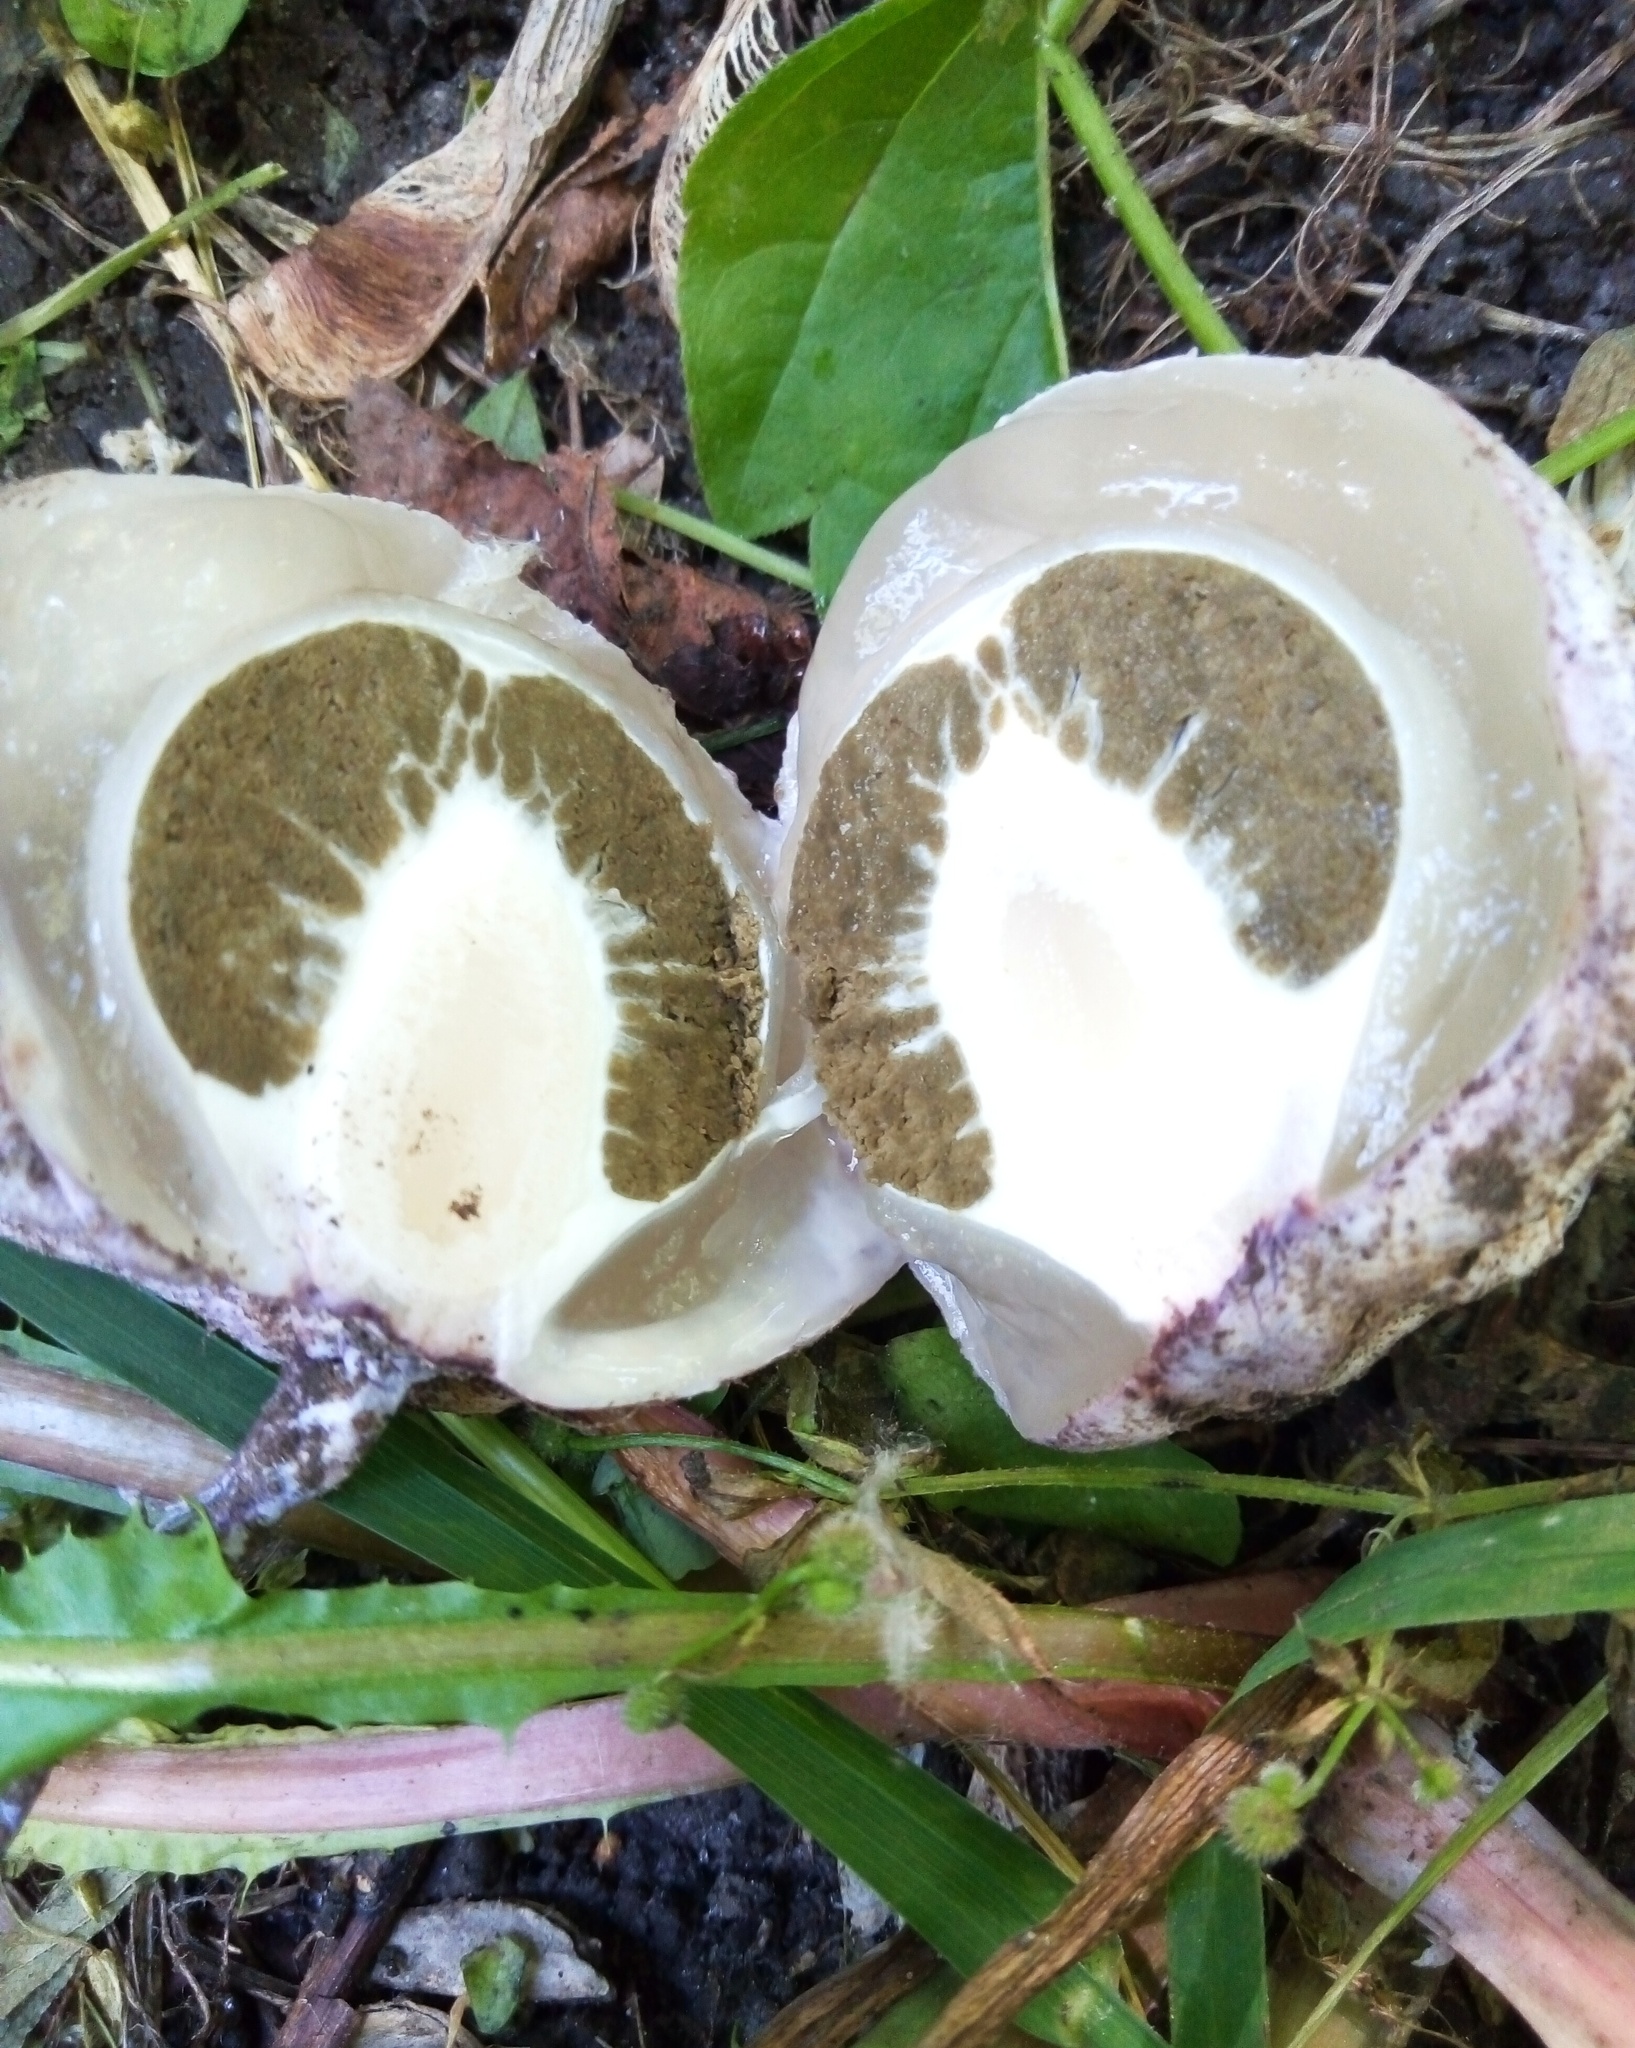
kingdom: Fungi
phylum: Basidiomycota
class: Agaricomycetes
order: Phallales
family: Phallaceae
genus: Phallus
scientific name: Phallus impudicus
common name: Common stinkhorn
